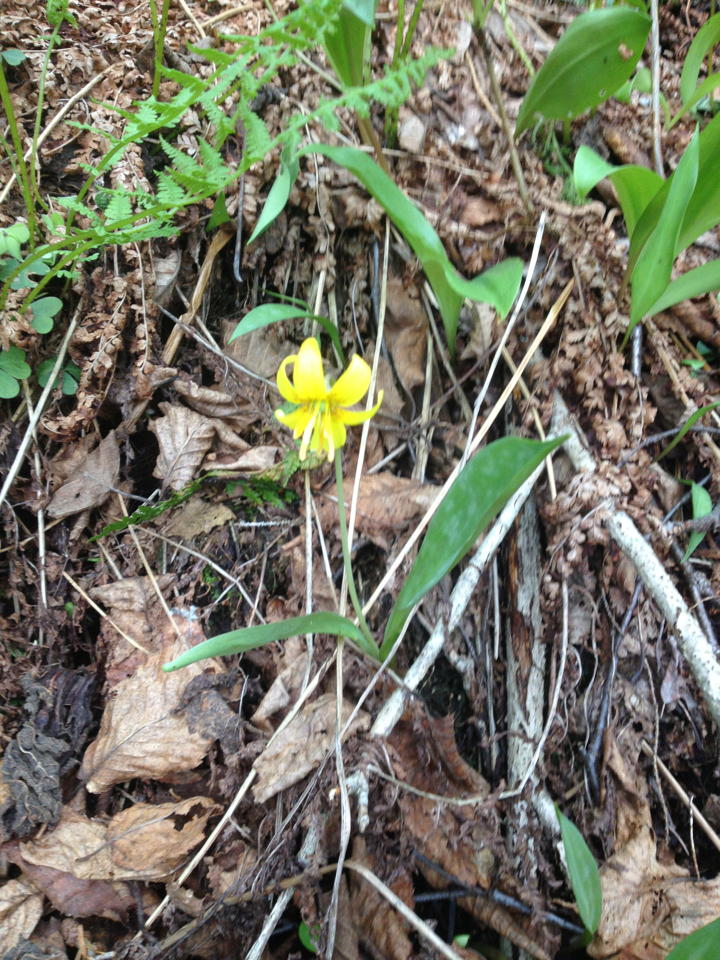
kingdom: Plantae
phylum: Tracheophyta
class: Liliopsida
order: Liliales
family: Liliaceae
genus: Erythronium
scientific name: Erythronium americanum
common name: Yellow adder's-tongue
